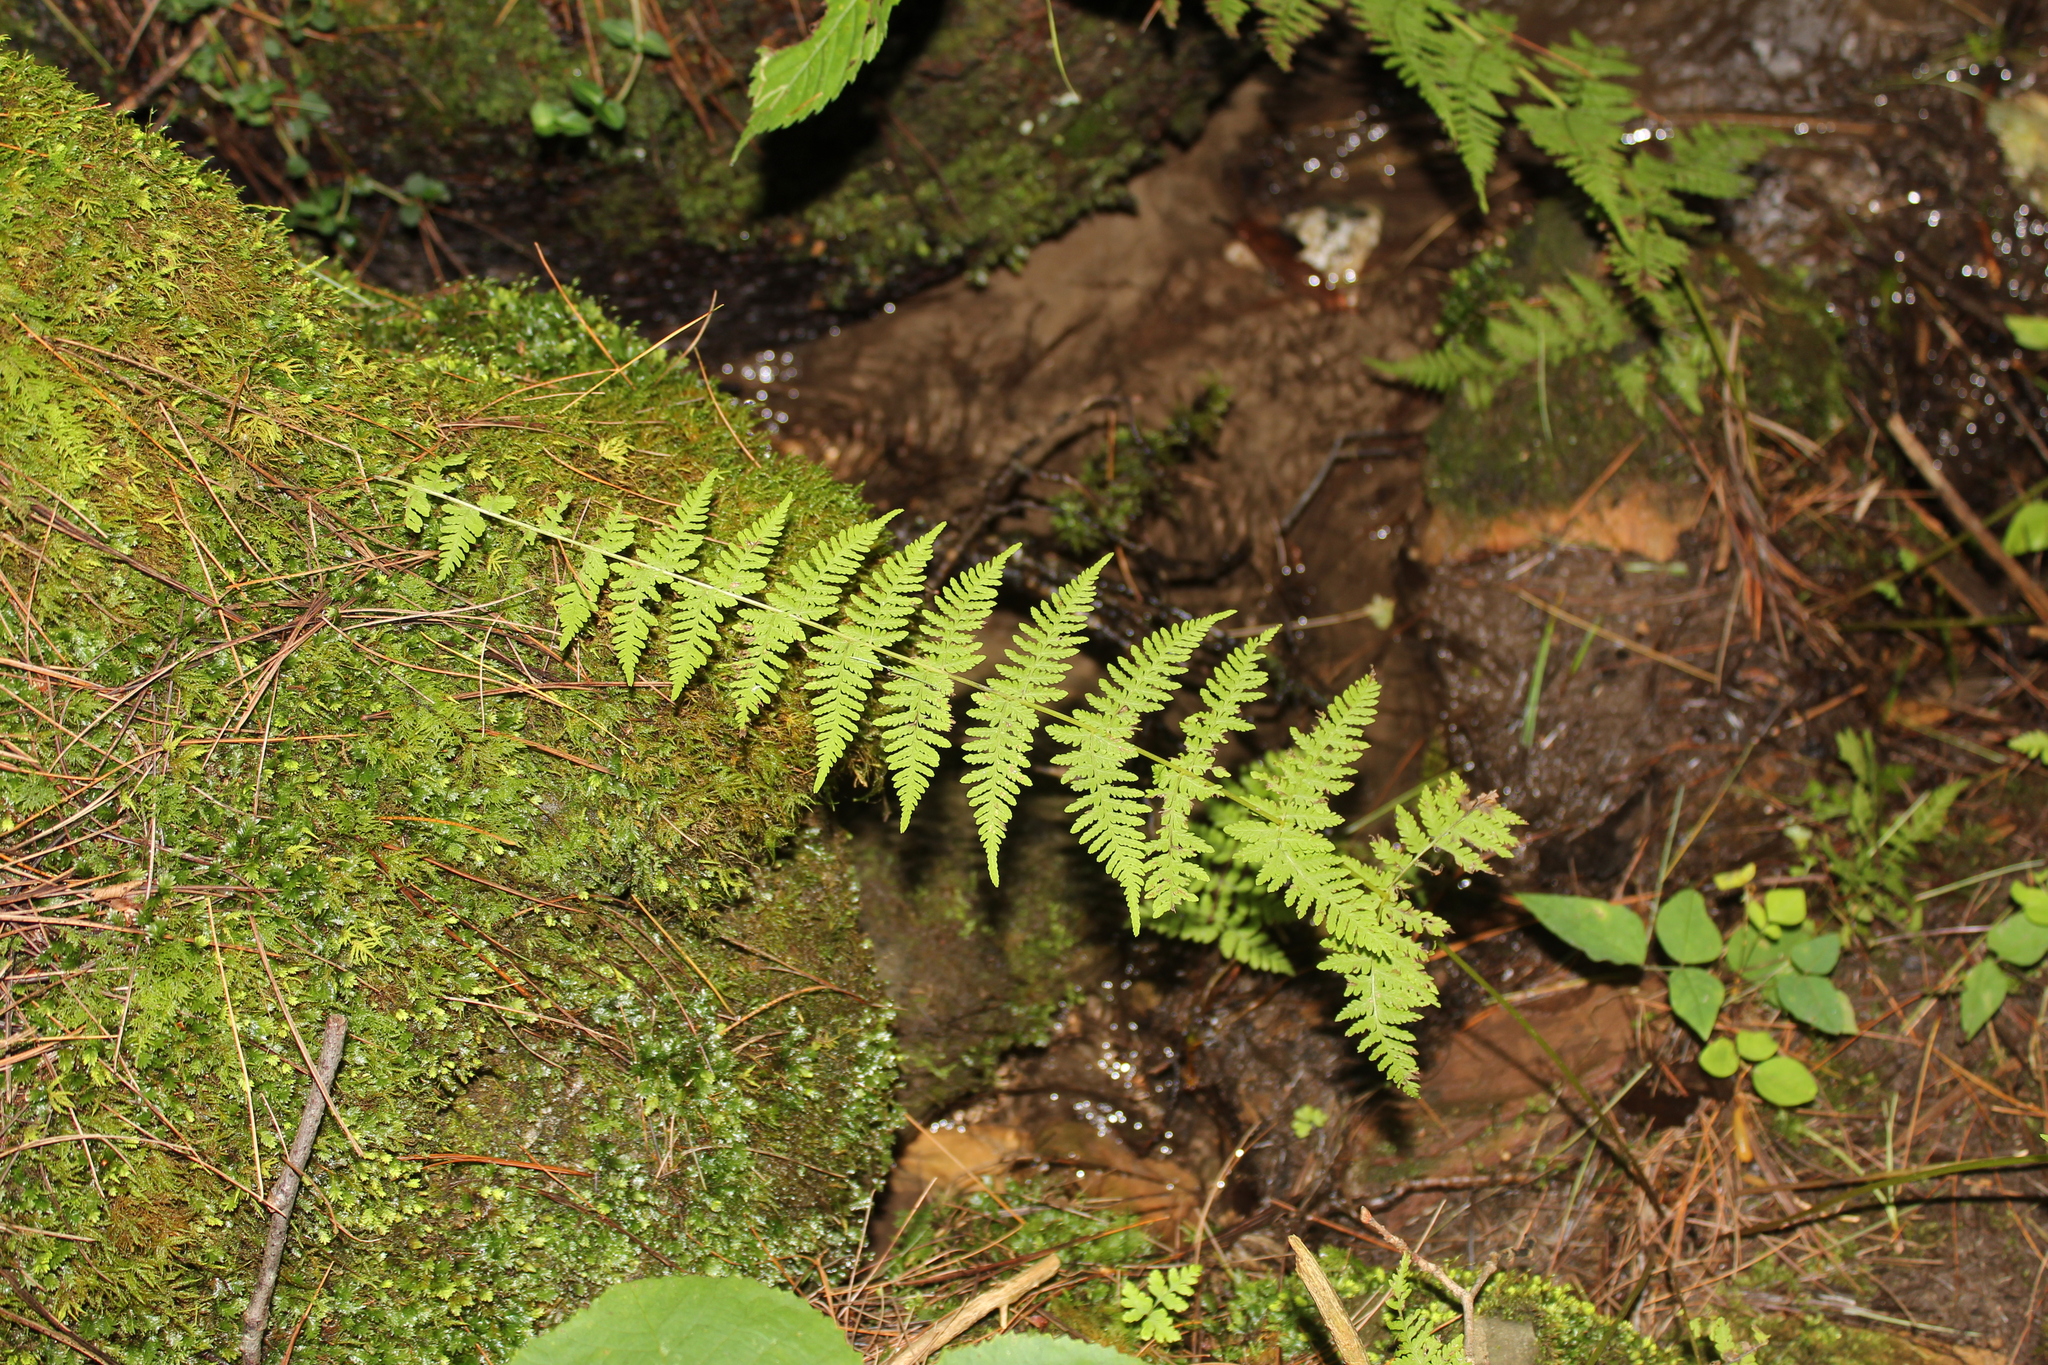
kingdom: Plantae
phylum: Tracheophyta
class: Polypodiopsida
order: Polypodiales
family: Cystopteridaceae
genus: Cystopteris
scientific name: Cystopteris bulbifera
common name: Bulblet bladder fern
